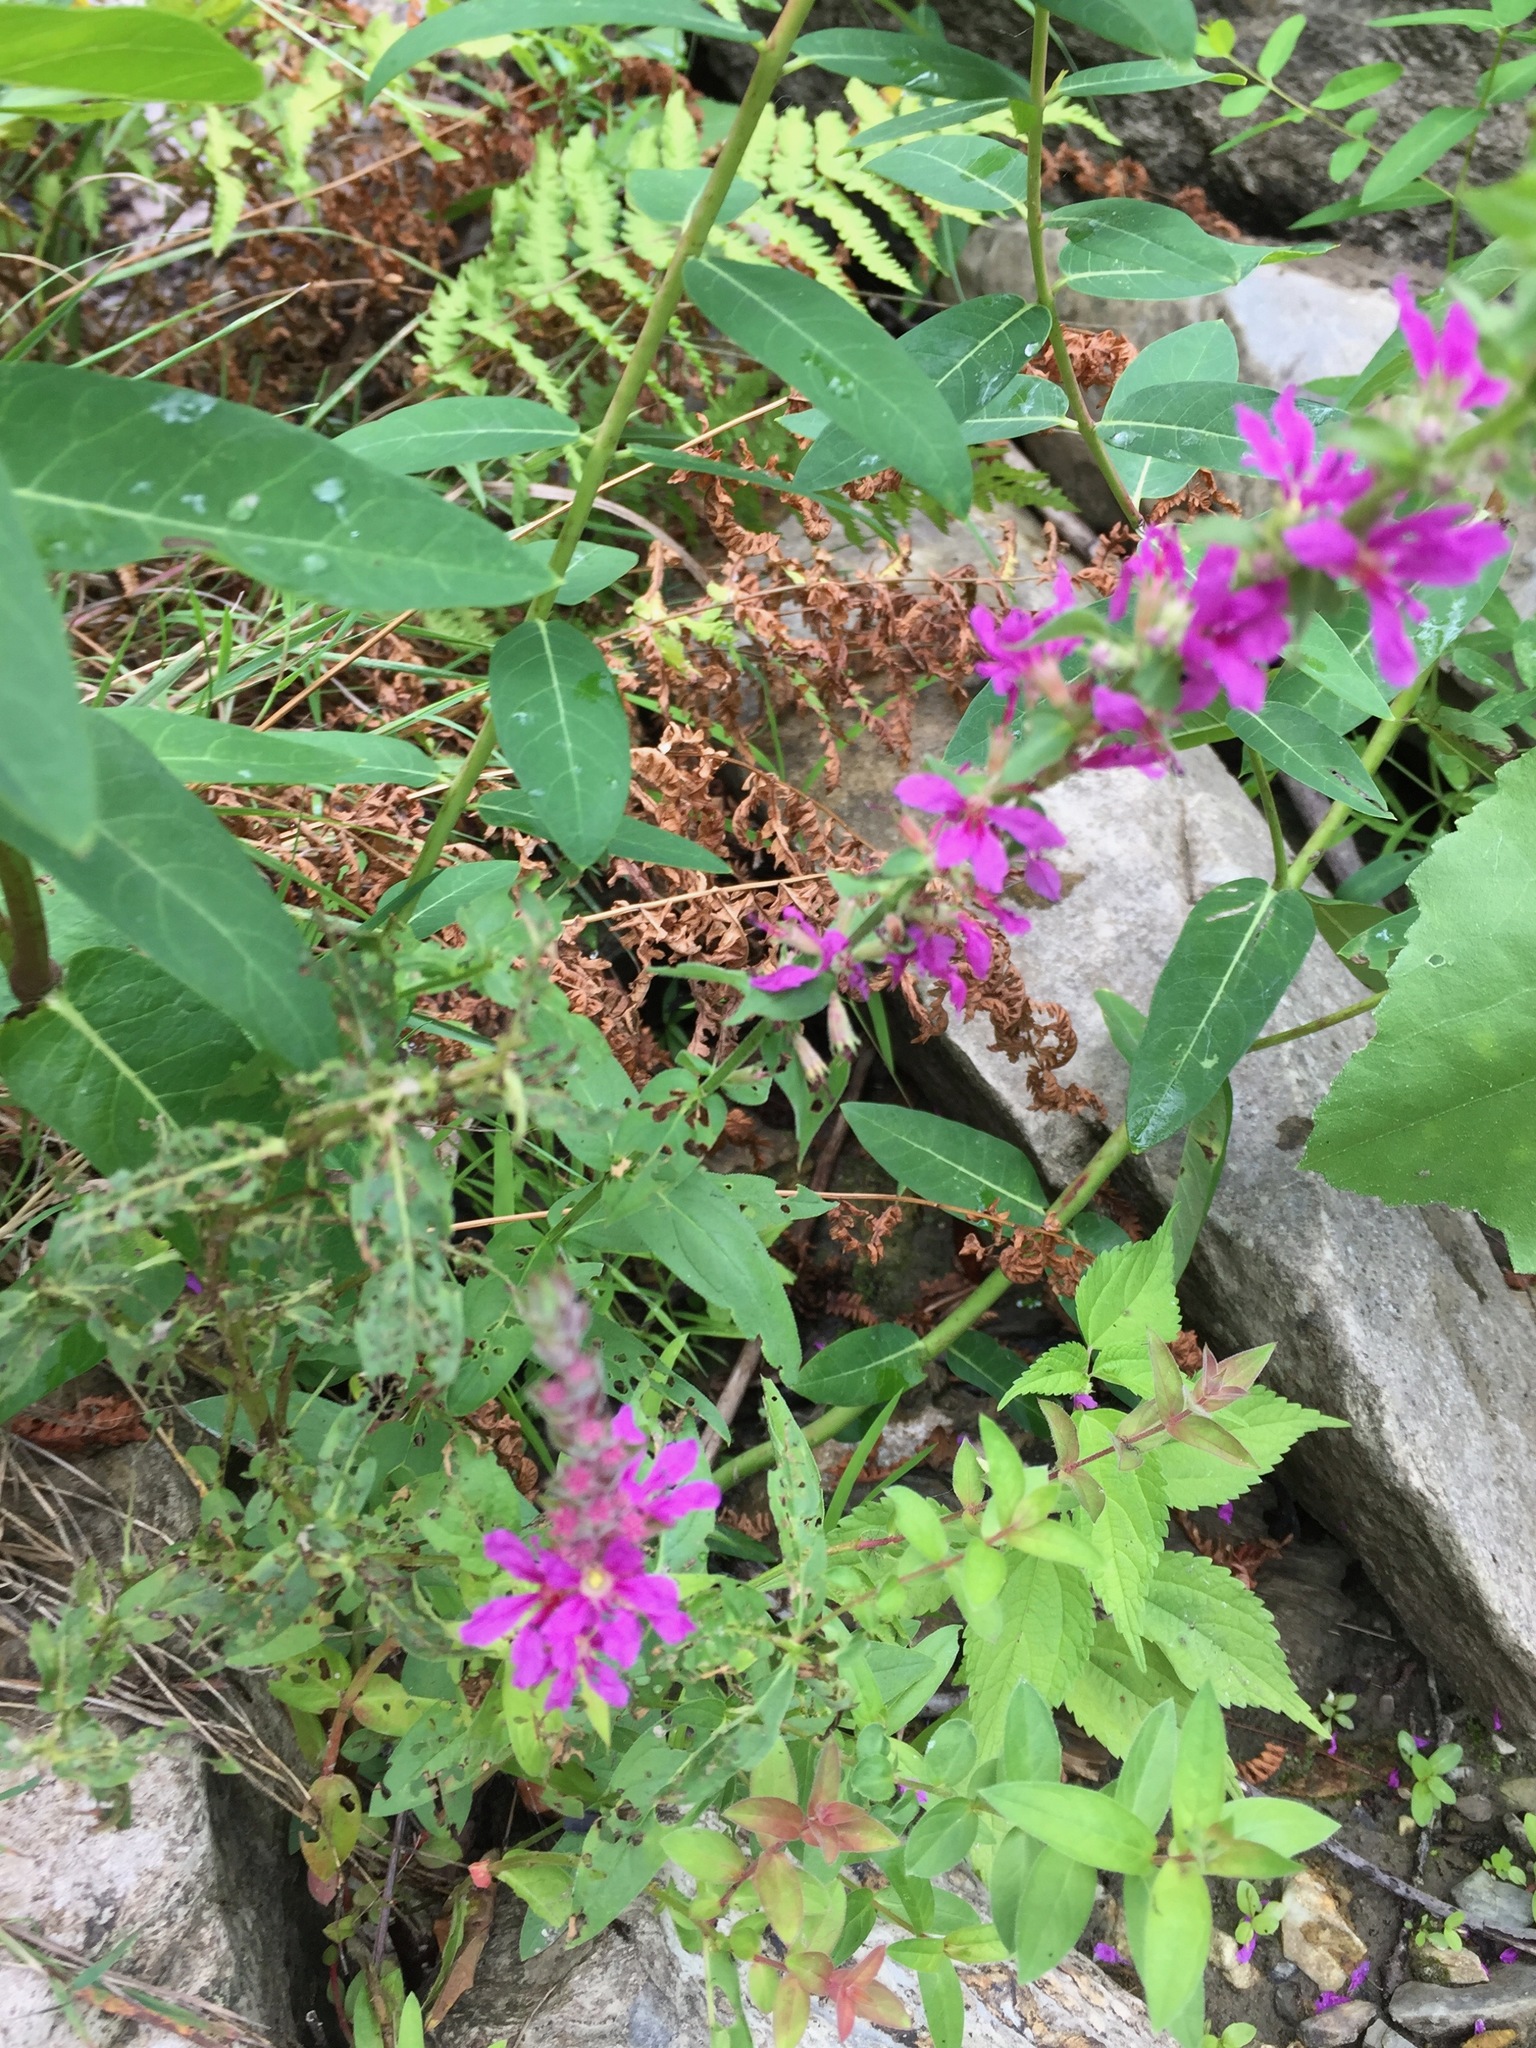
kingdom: Plantae
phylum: Tracheophyta
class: Magnoliopsida
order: Myrtales
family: Lythraceae
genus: Lythrum
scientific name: Lythrum salicaria
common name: Purple loosestrife
